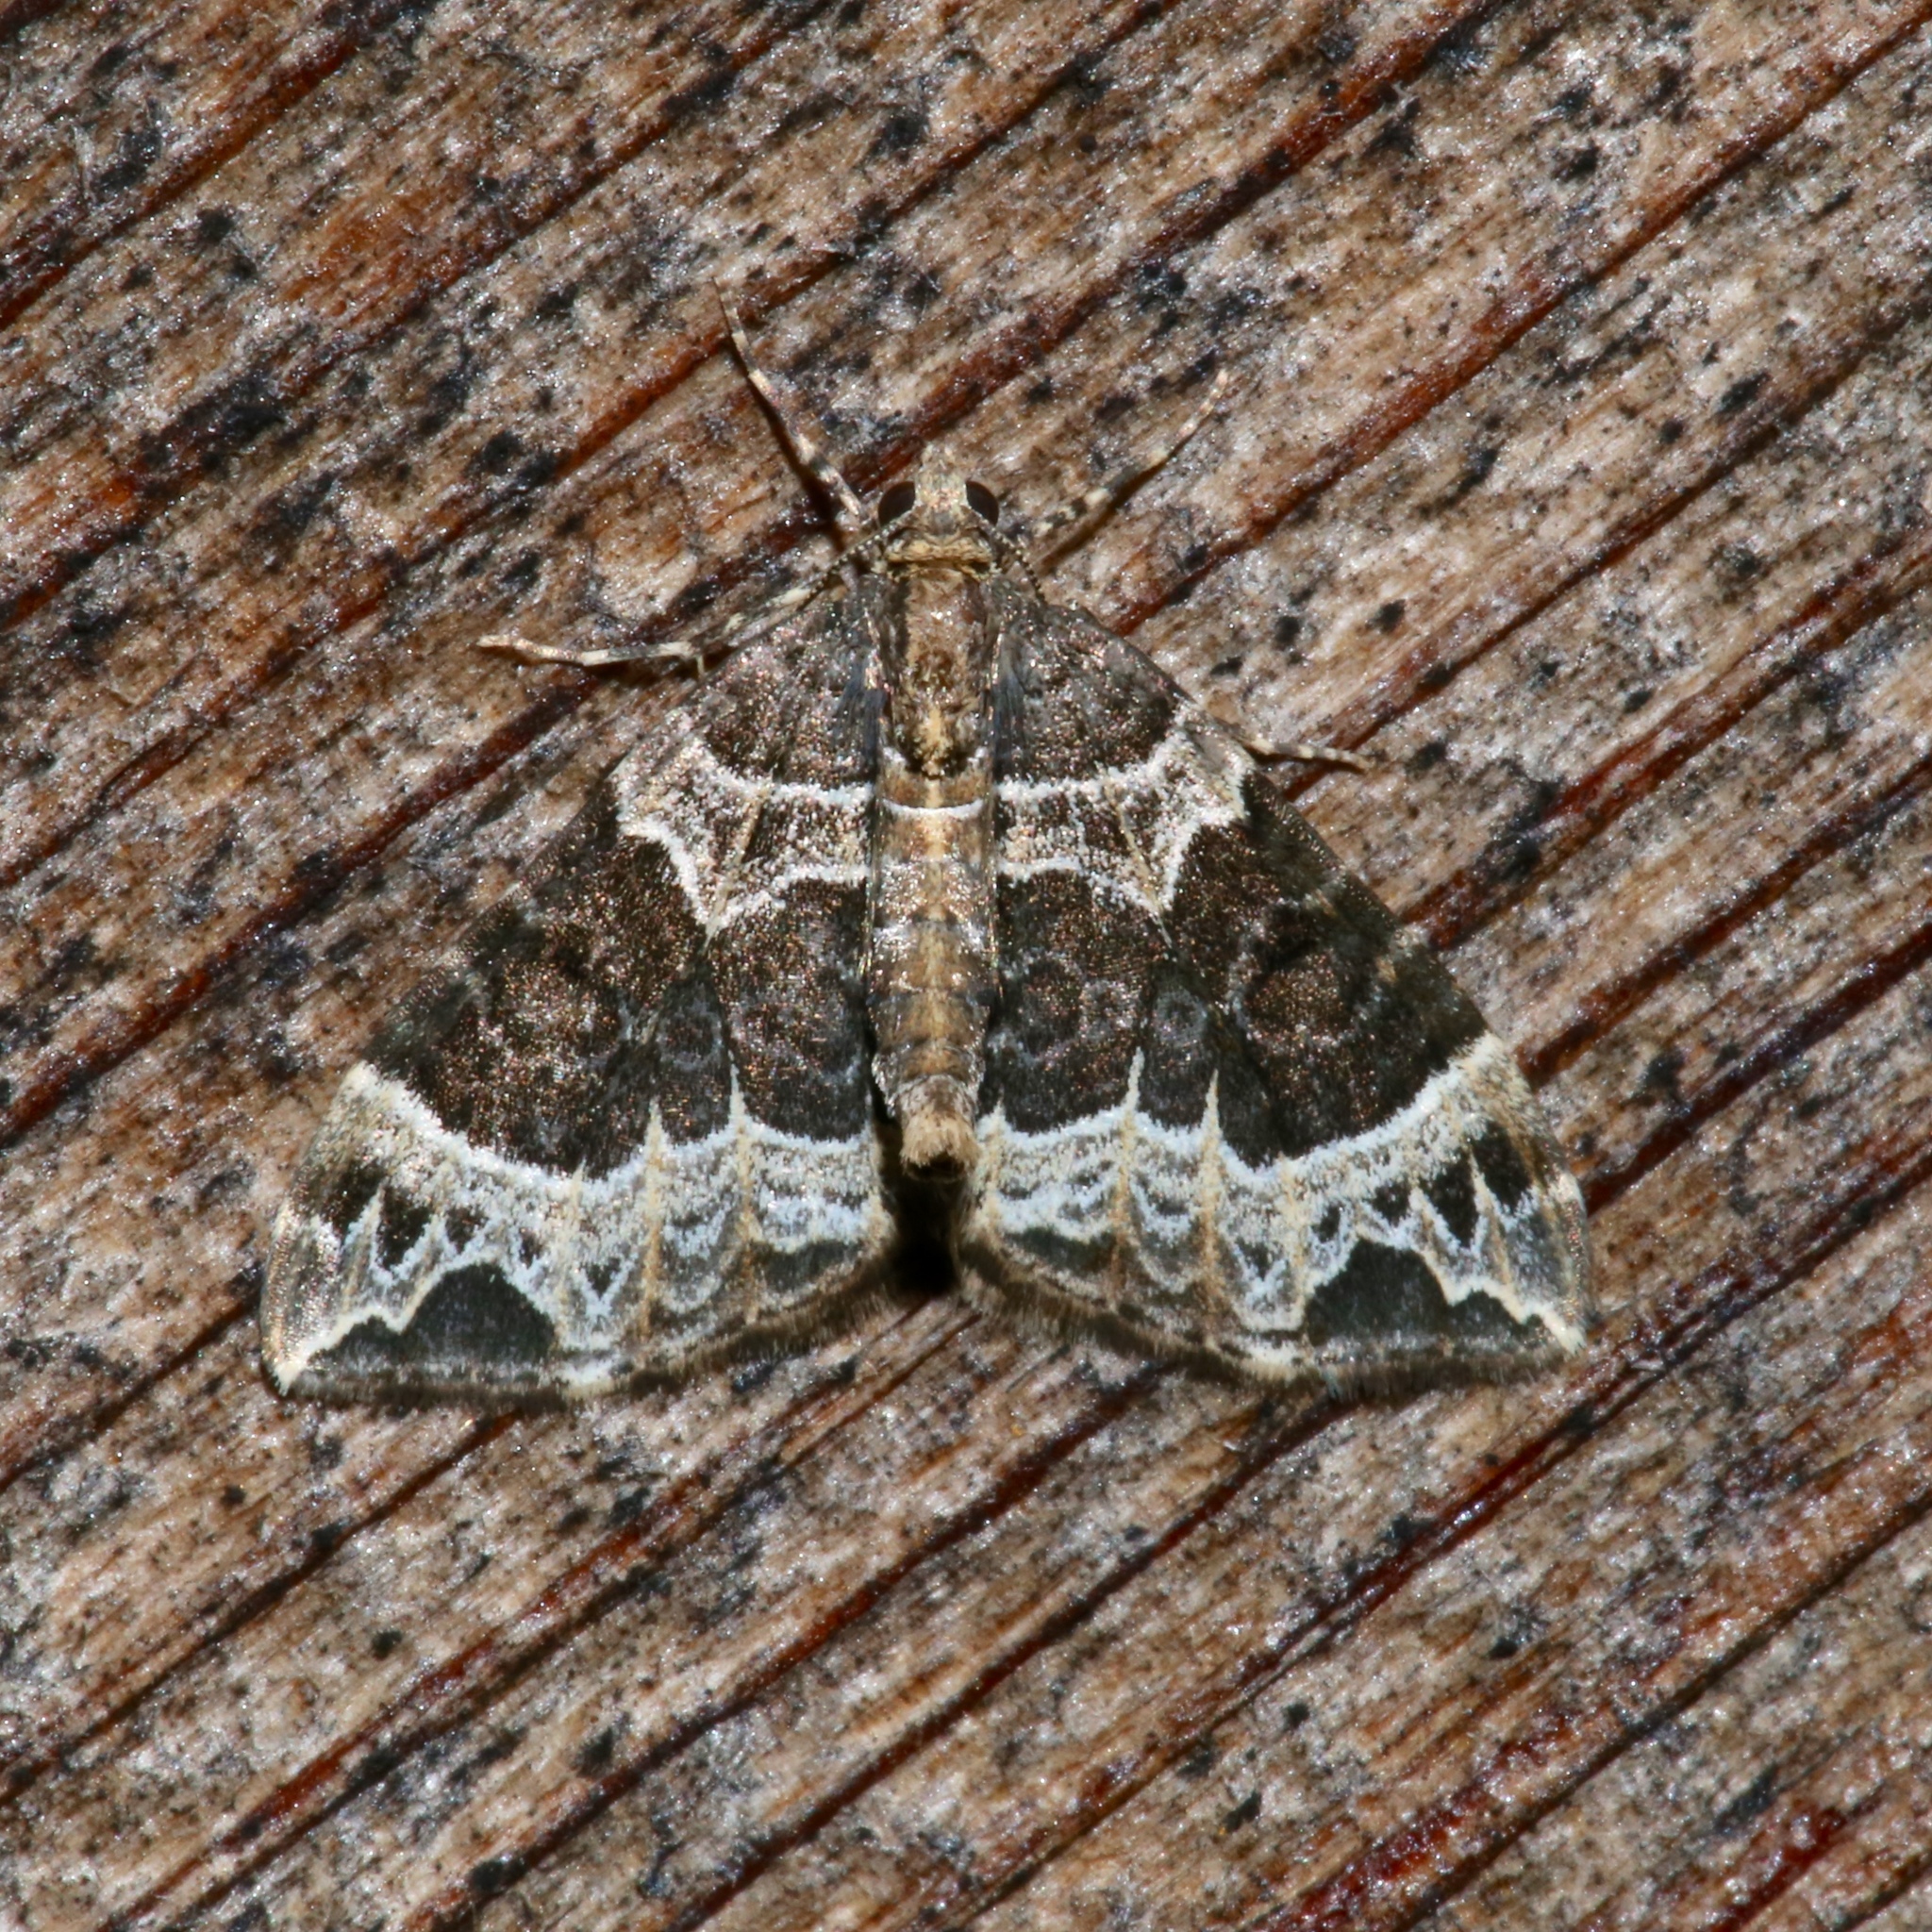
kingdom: Animalia
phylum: Arthropoda
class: Insecta
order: Lepidoptera
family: Geometridae
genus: Ecliptopera
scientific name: Ecliptopera silaceata
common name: Small phoenix
